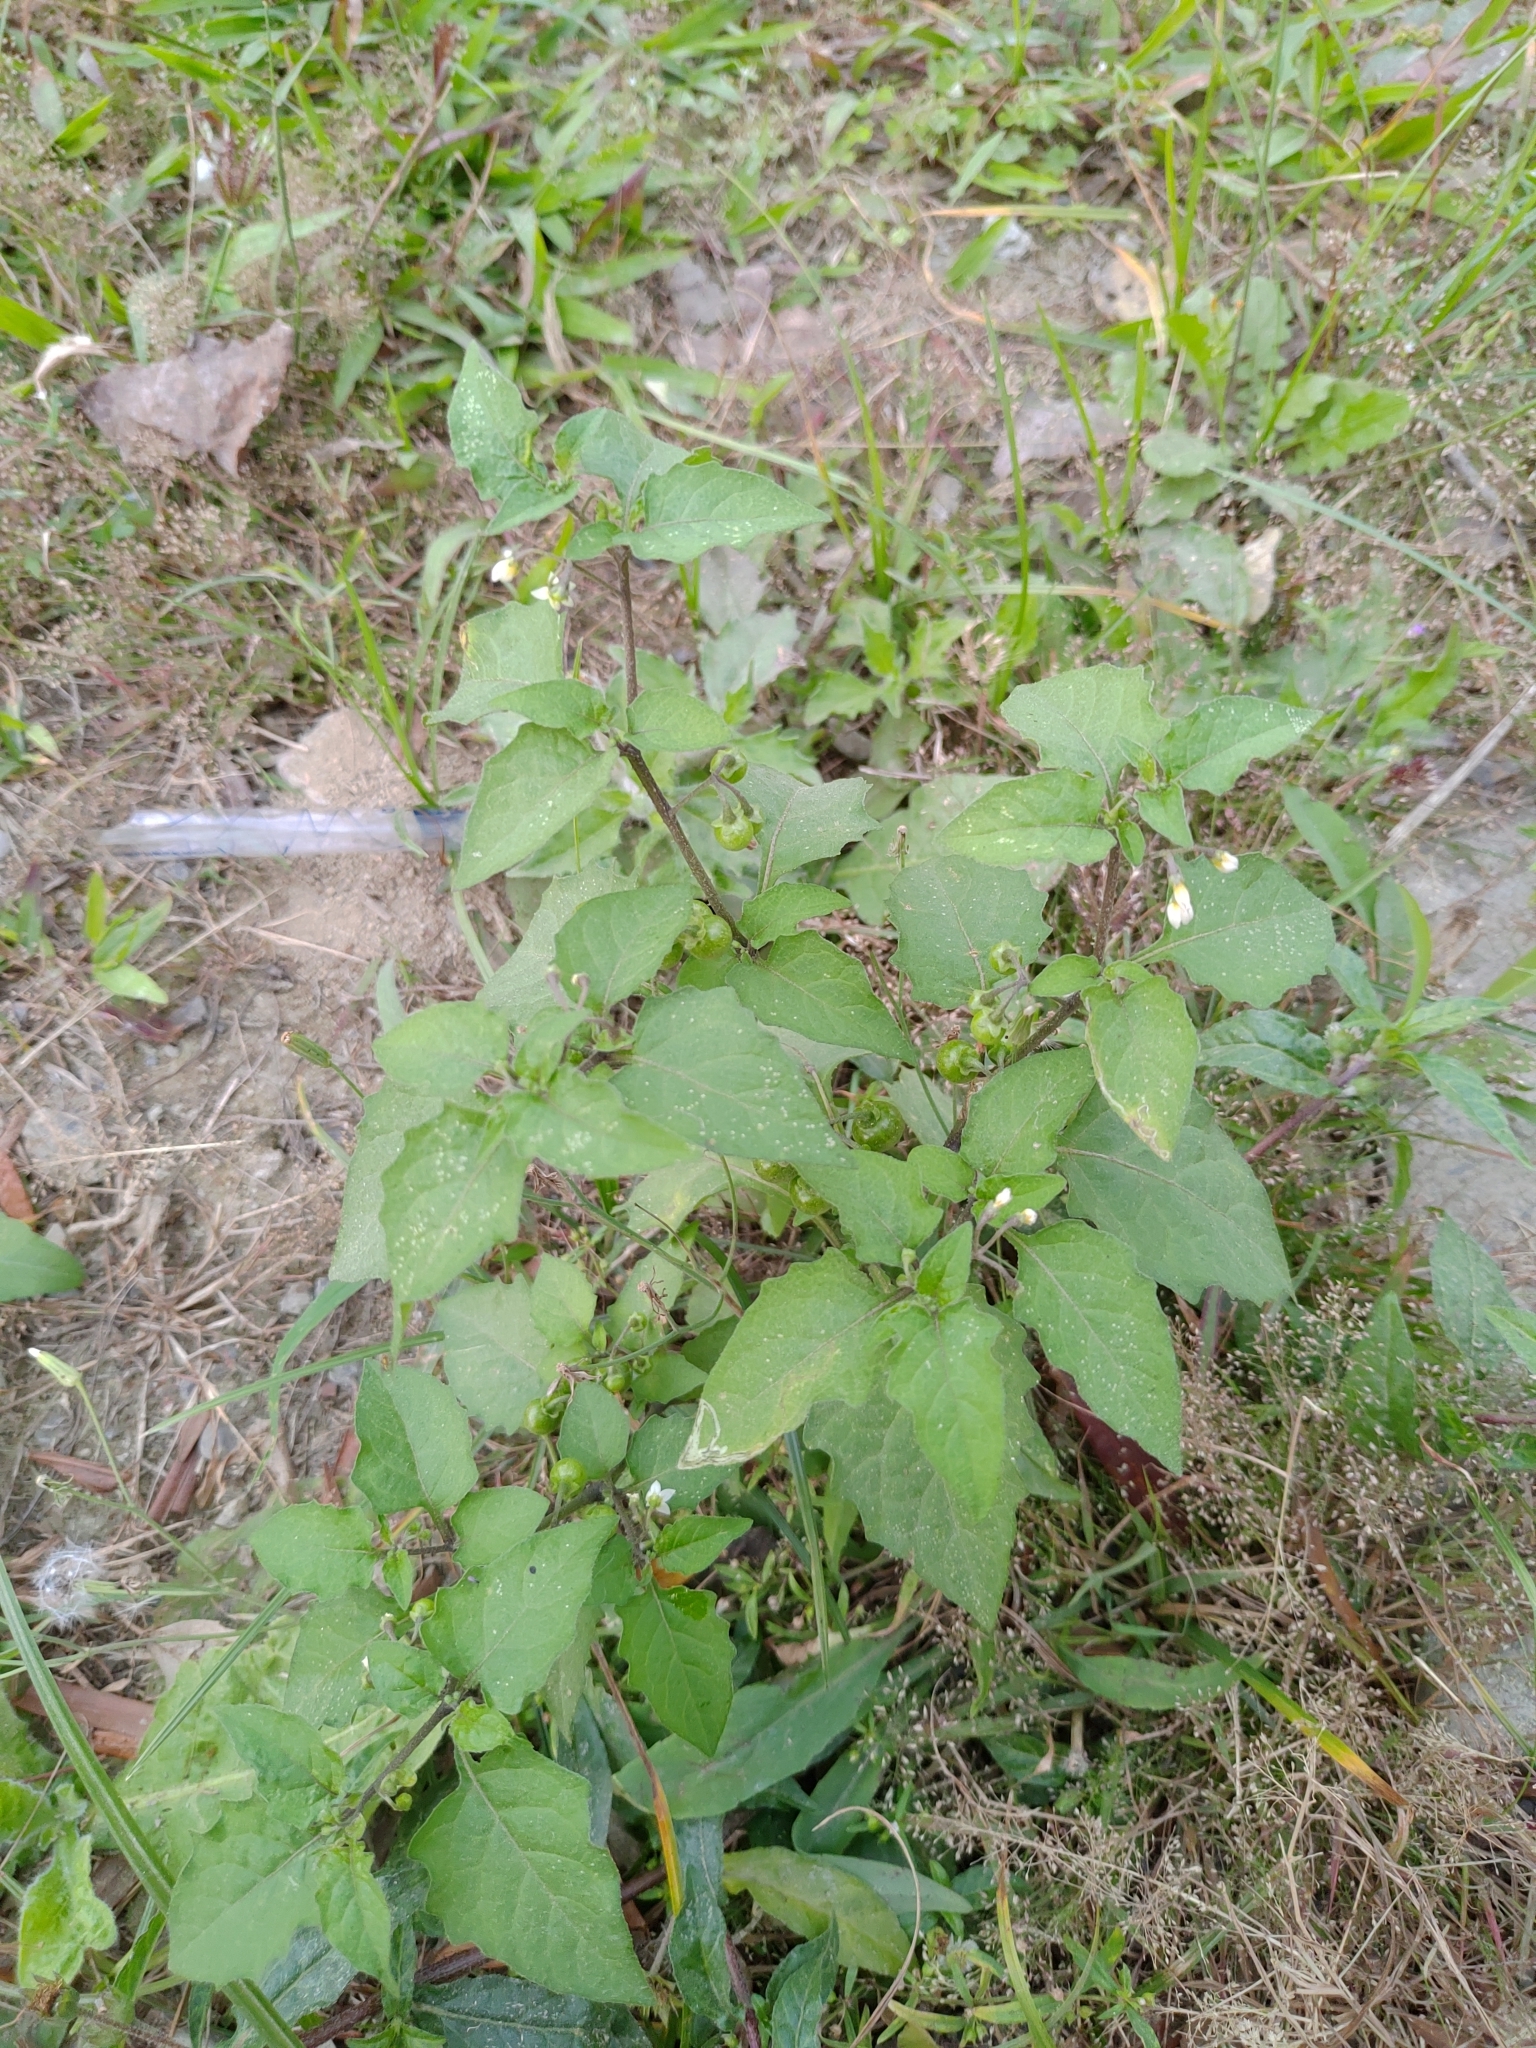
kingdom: Plantae
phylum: Tracheophyta
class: Magnoliopsida
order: Solanales
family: Solanaceae
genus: Solanum
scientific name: Solanum americanum
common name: American black nightshade
